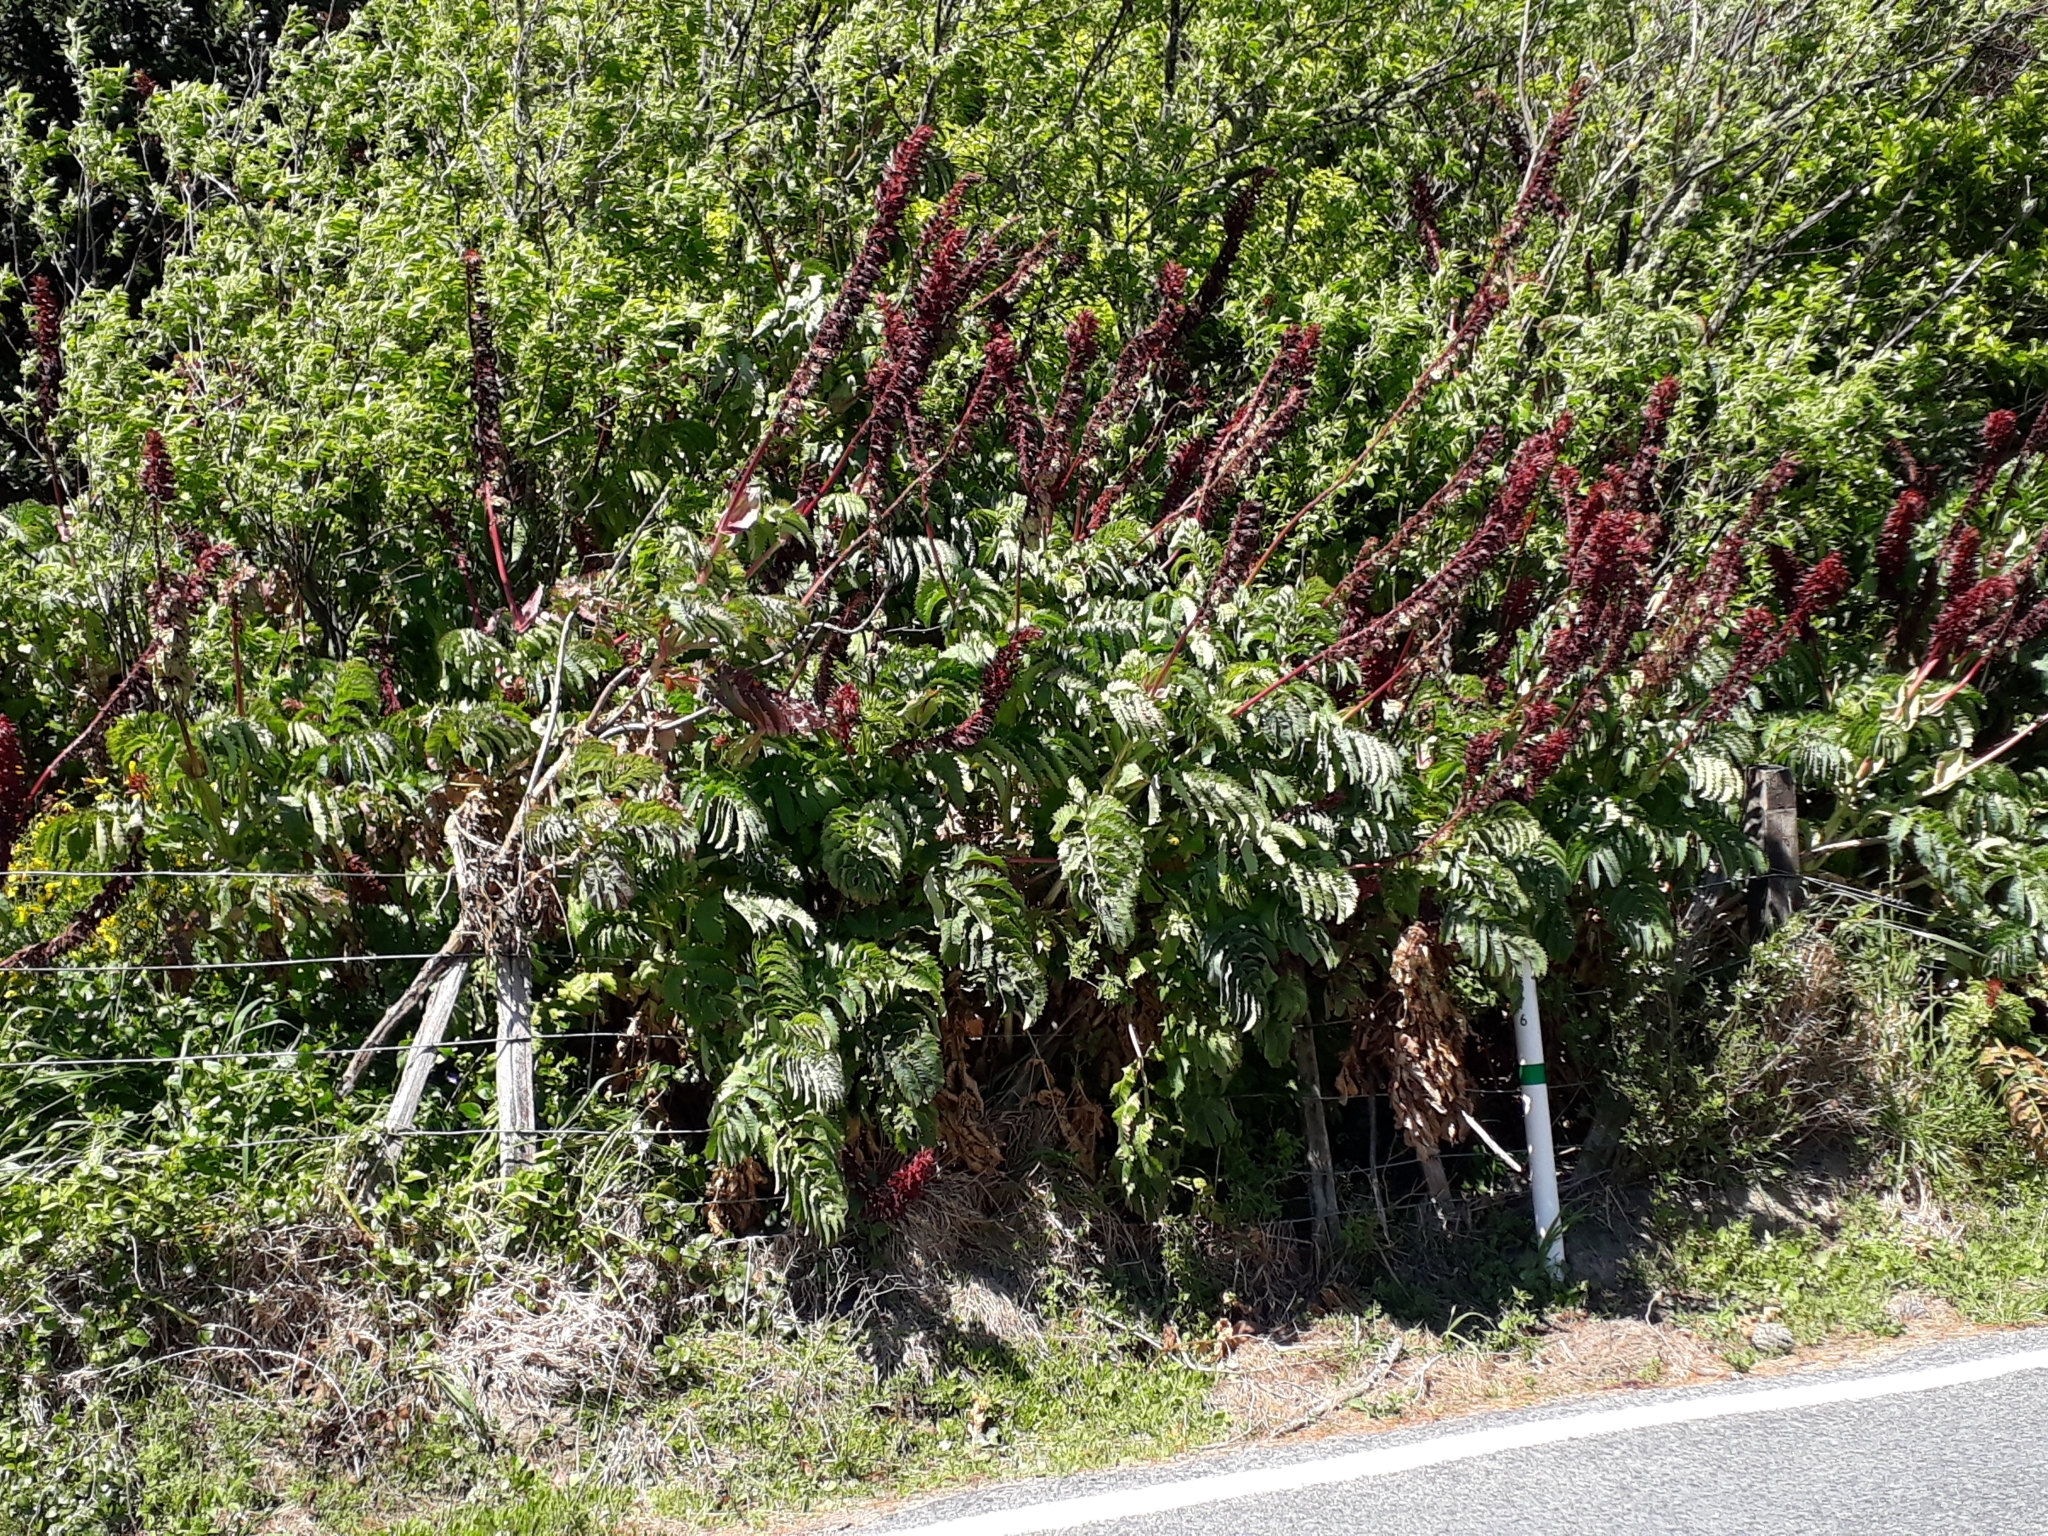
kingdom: Plantae
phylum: Tracheophyta
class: Magnoliopsida
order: Geraniales
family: Melianthaceae
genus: Melianthus
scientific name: Melianthus major
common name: Honey-flower
